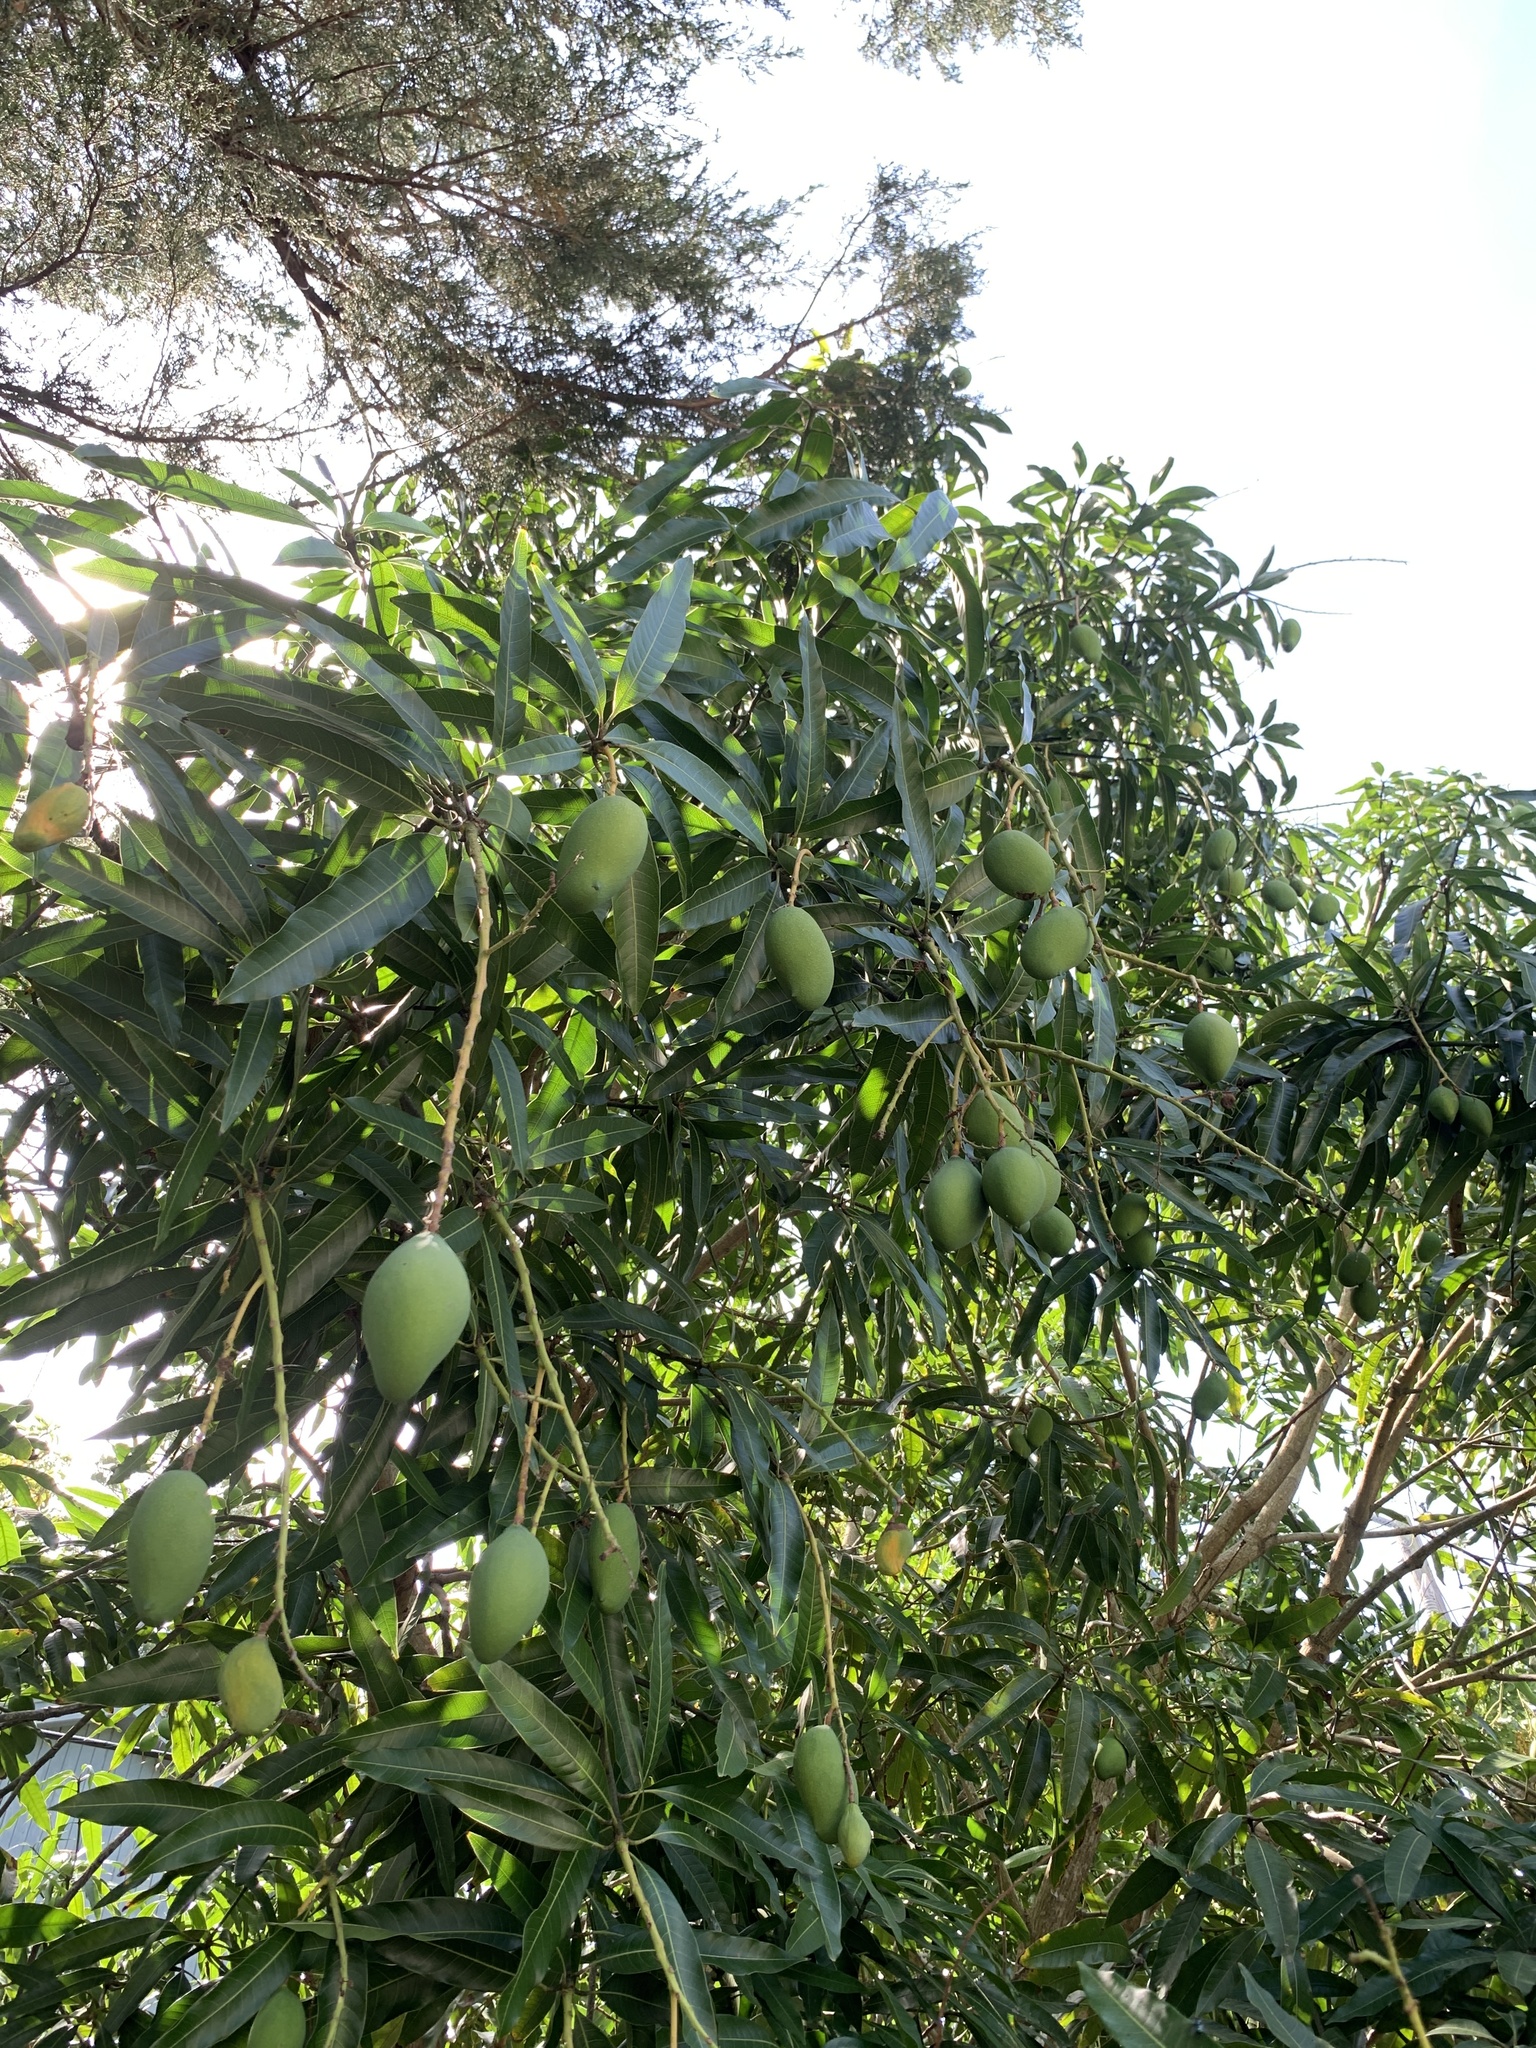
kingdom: Plantae
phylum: Tracheophyta
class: Magnoliopsida
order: Sapindales
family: Anacardiaceae
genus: Mangifera
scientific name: Mangifera indica
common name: Mango
